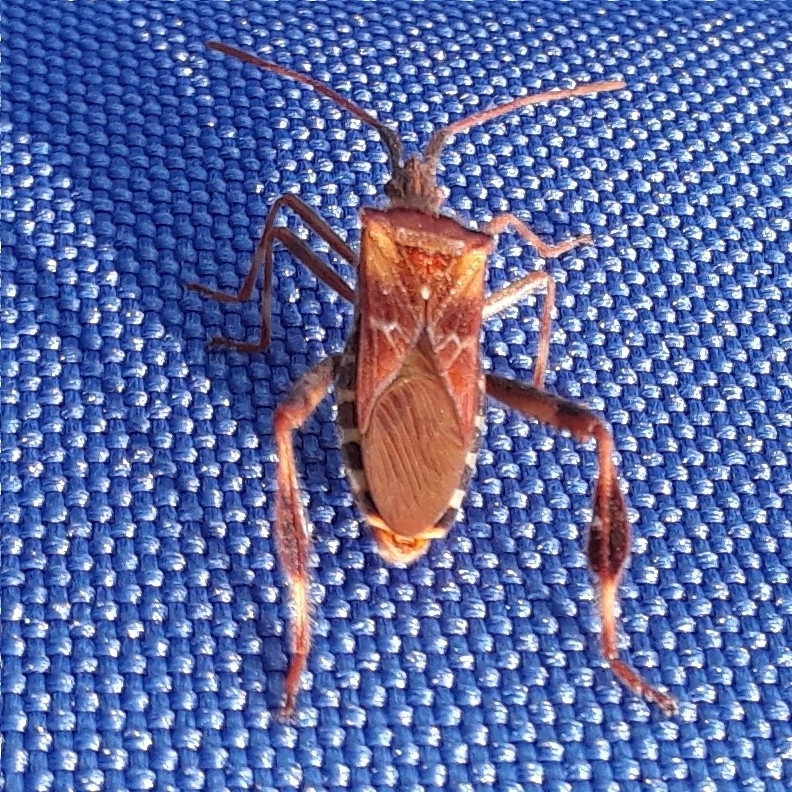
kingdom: Animalia
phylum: Arthropoda
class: Insecta
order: Hemiptera
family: Coreidae
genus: Leptoglossus
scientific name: Leptoglossus occidentalis
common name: Western conifer-seed bug
